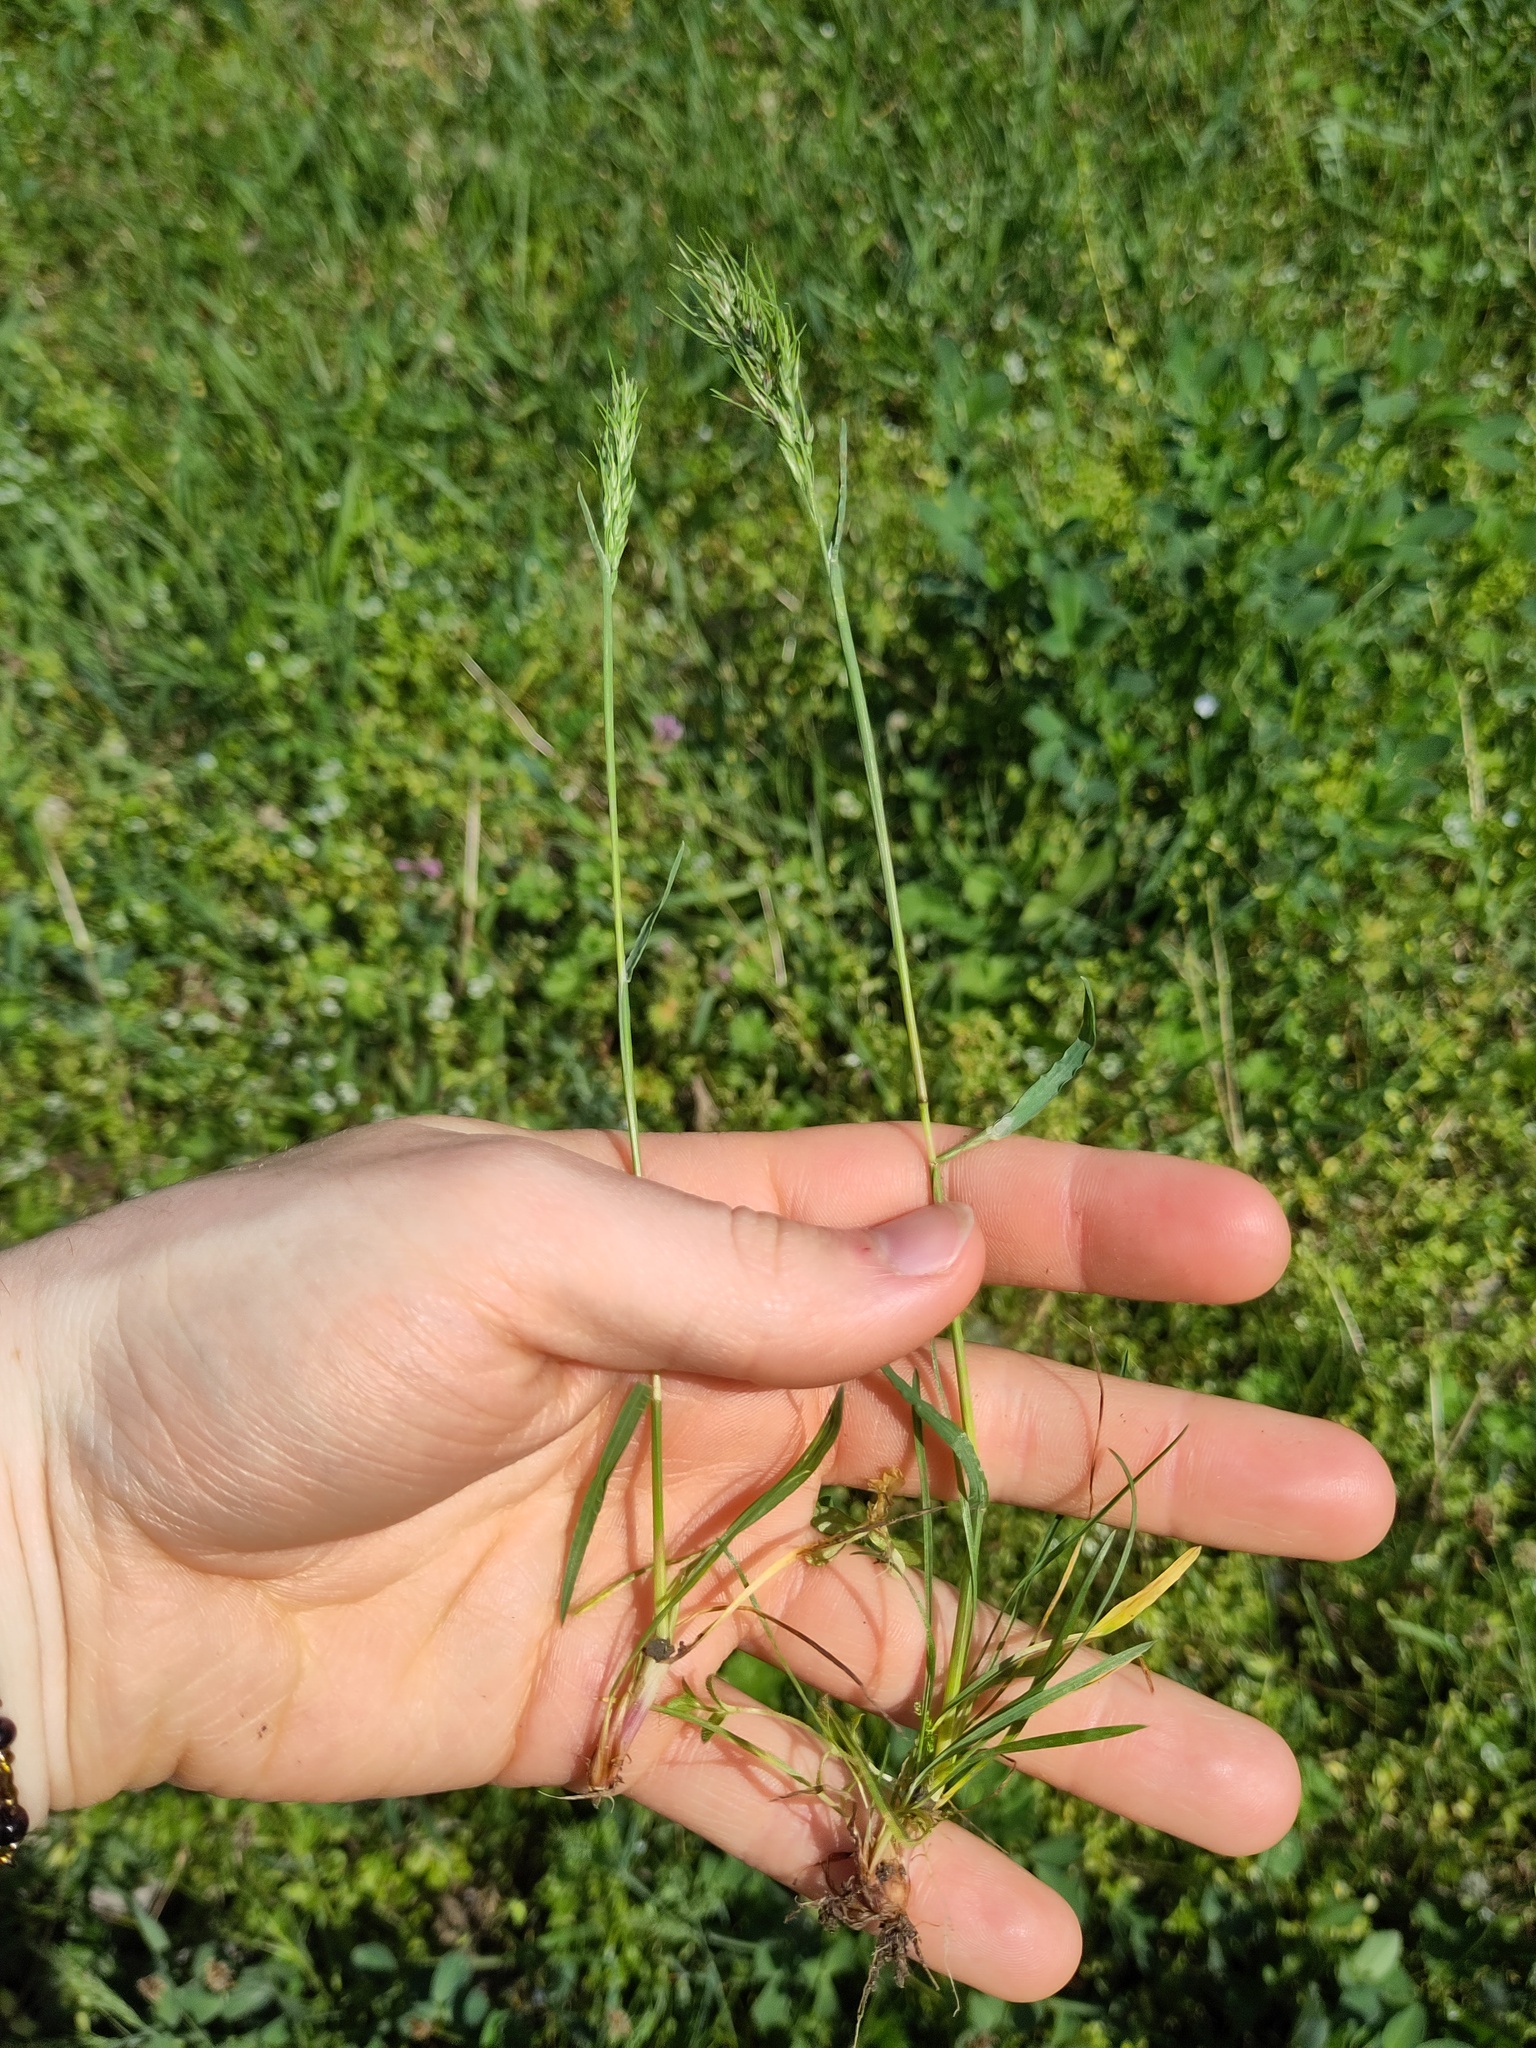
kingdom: Plantae
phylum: Tracheophyta
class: Liliopsida
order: Poales
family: Poaceae
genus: Poa
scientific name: Poa bulbosa
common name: Bulbous bluegrass
